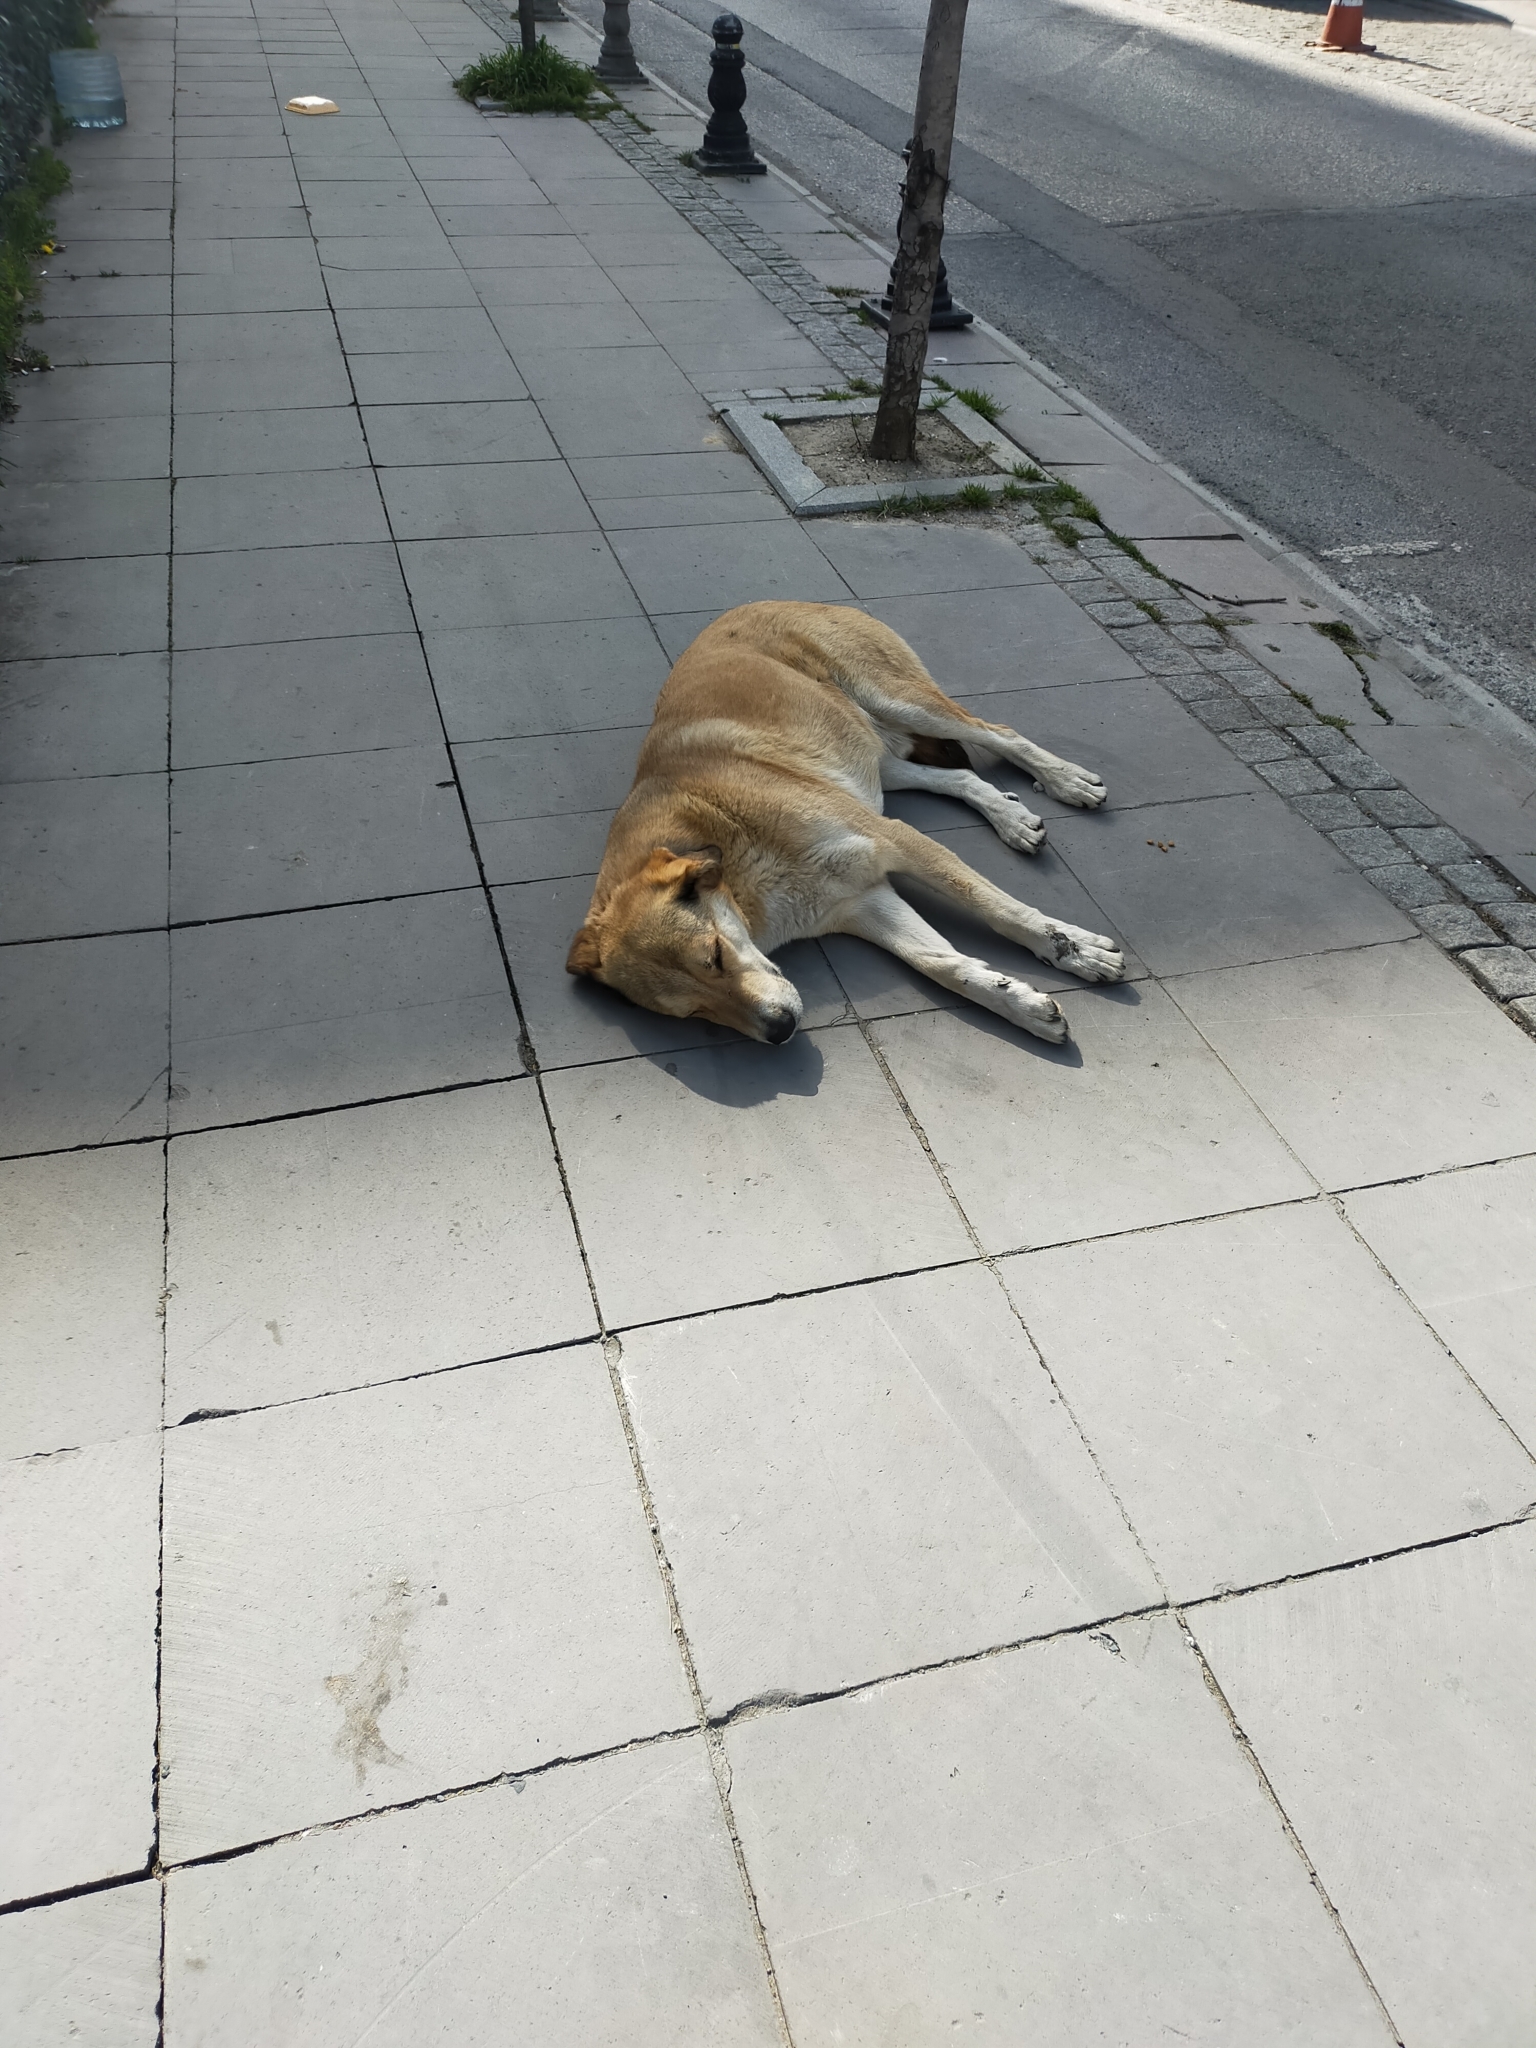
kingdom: Animalia
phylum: Chordata
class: Mammalia
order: Carnivora
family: Canidae
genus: Canis
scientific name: Canis lupus
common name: Gray wolf
